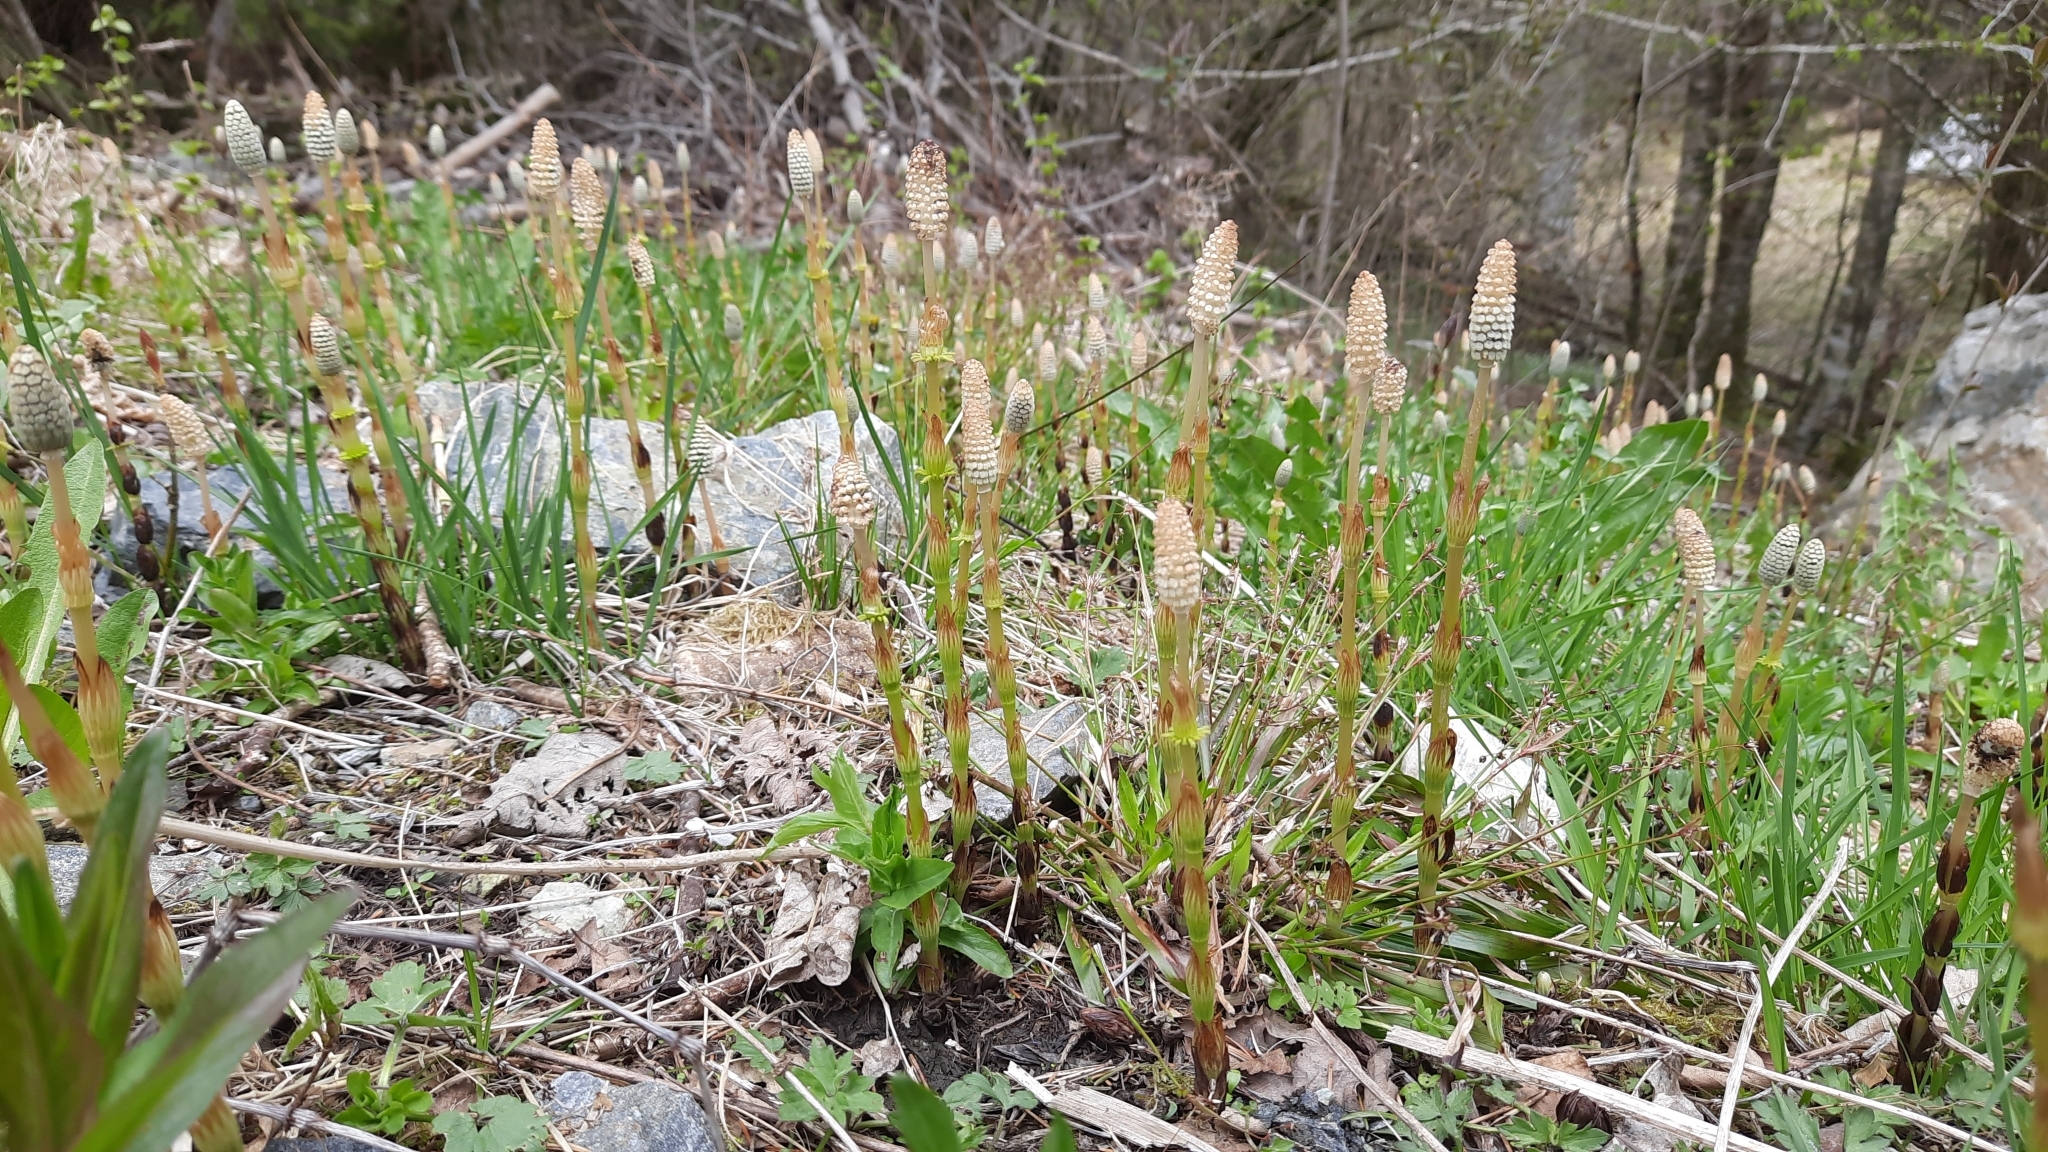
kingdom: Plantae
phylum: Tracheophyta
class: Polypodiopsida
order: Equisetales
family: Equisetaceae
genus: Equisetum
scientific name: Equisetum sylvaticum
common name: Wood horsetail
